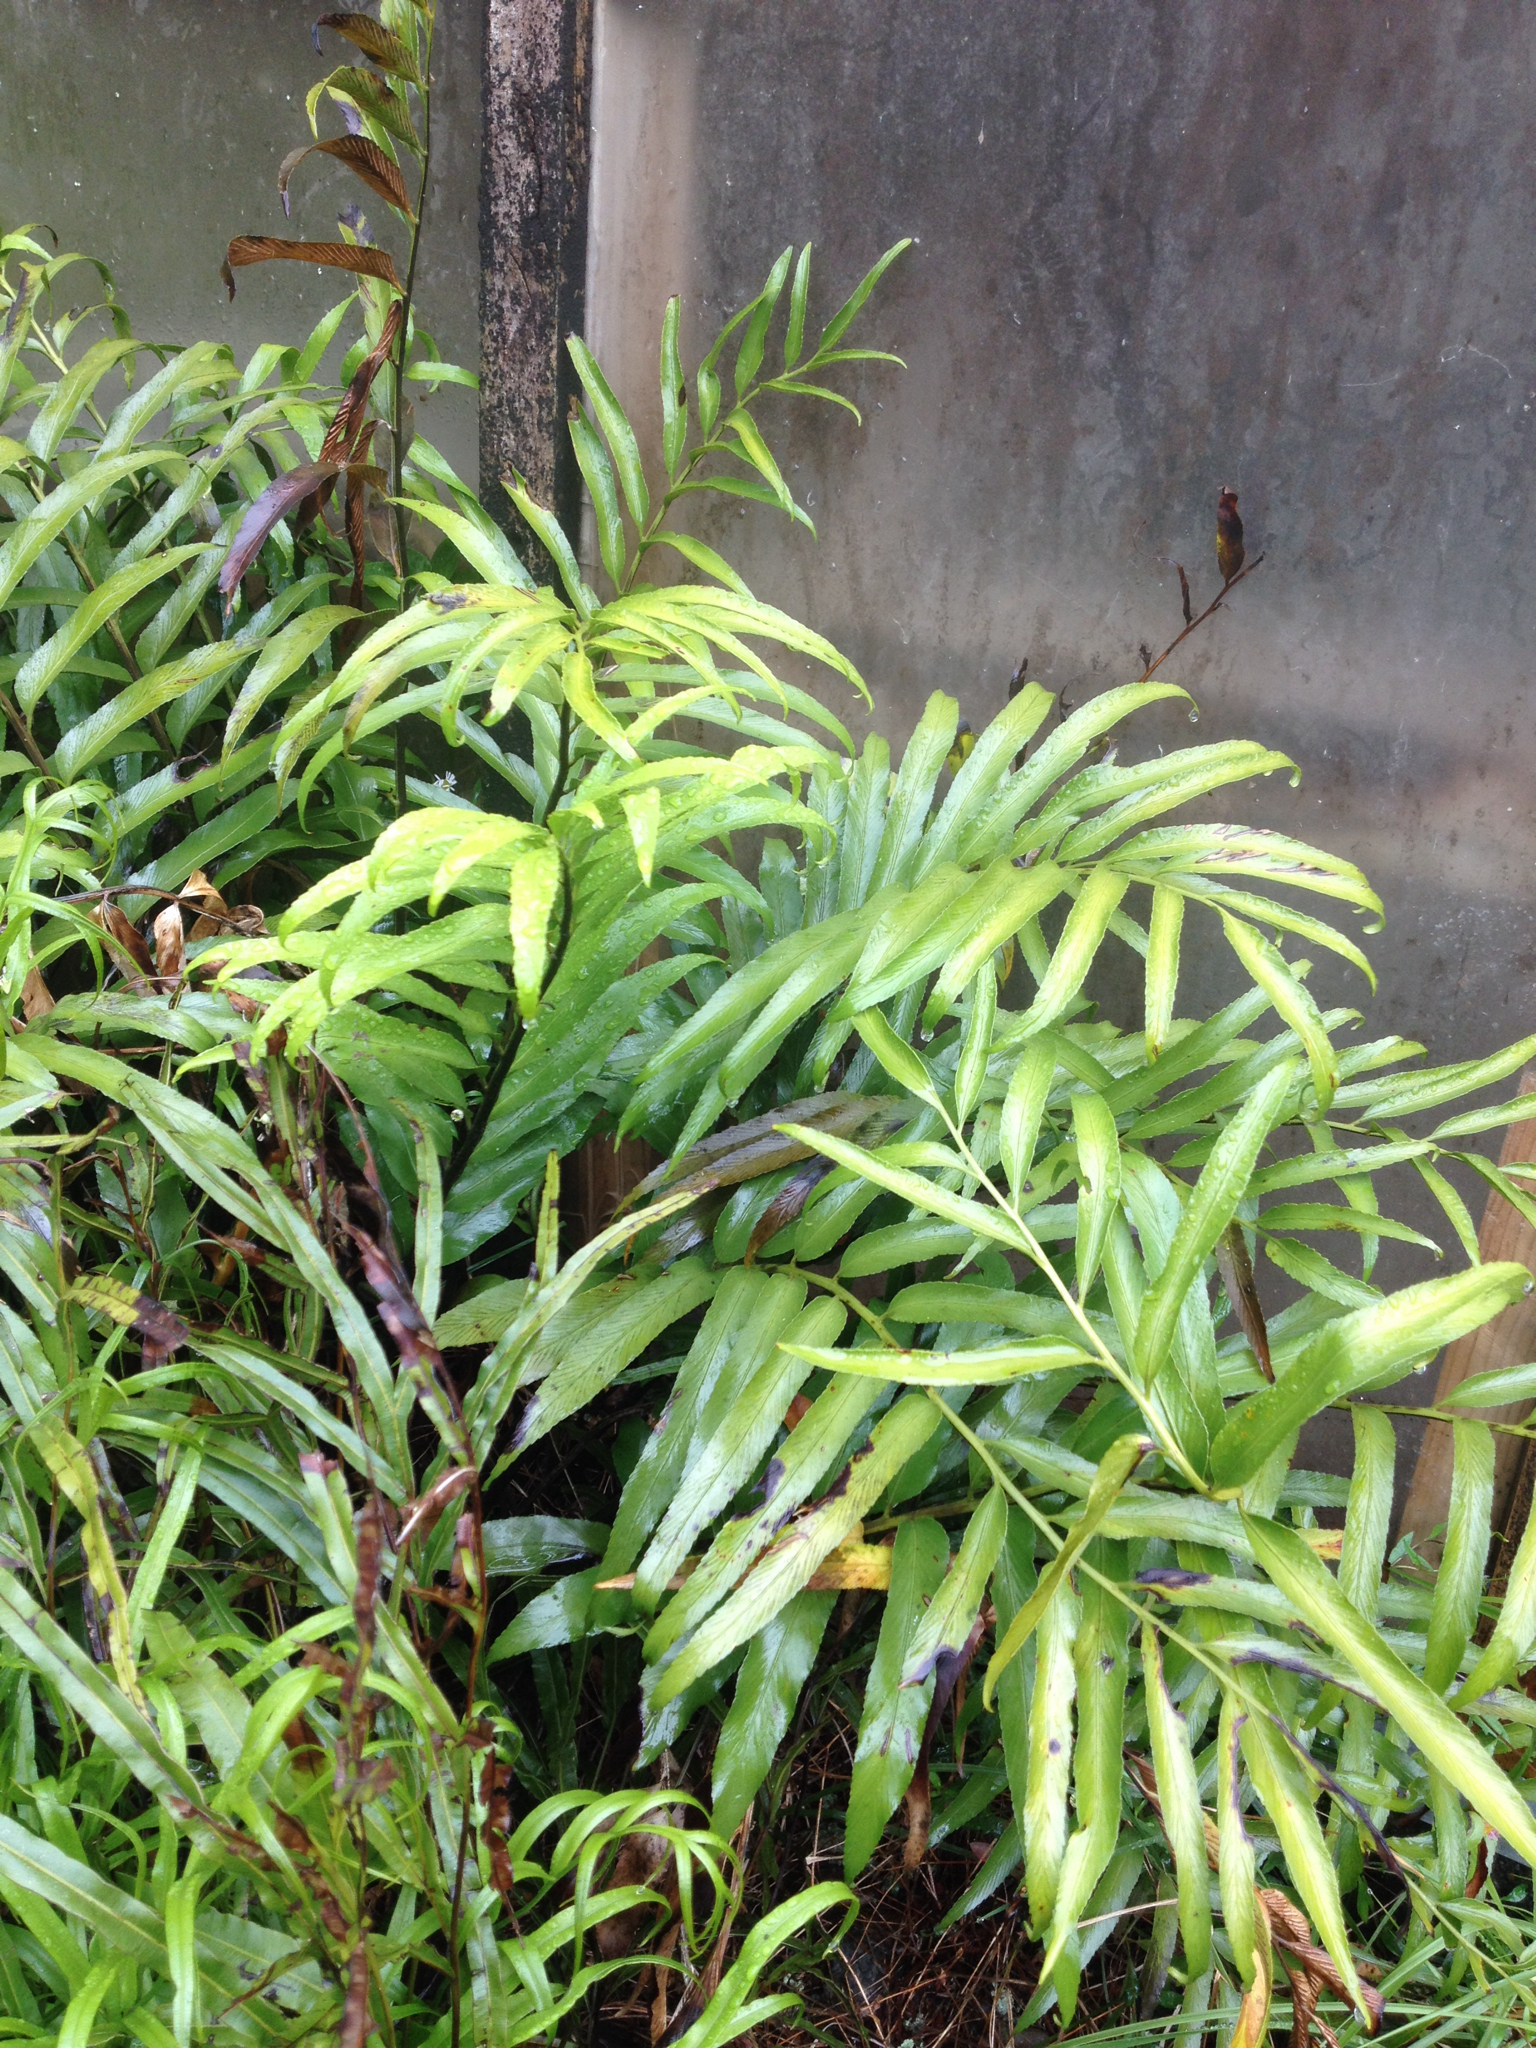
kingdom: Plantae
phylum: Tracheophyta
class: Polypodiopsida
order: Polypodiales
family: Aspleniaceae
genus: Asplenium
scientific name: Asplenium oblongifolium
